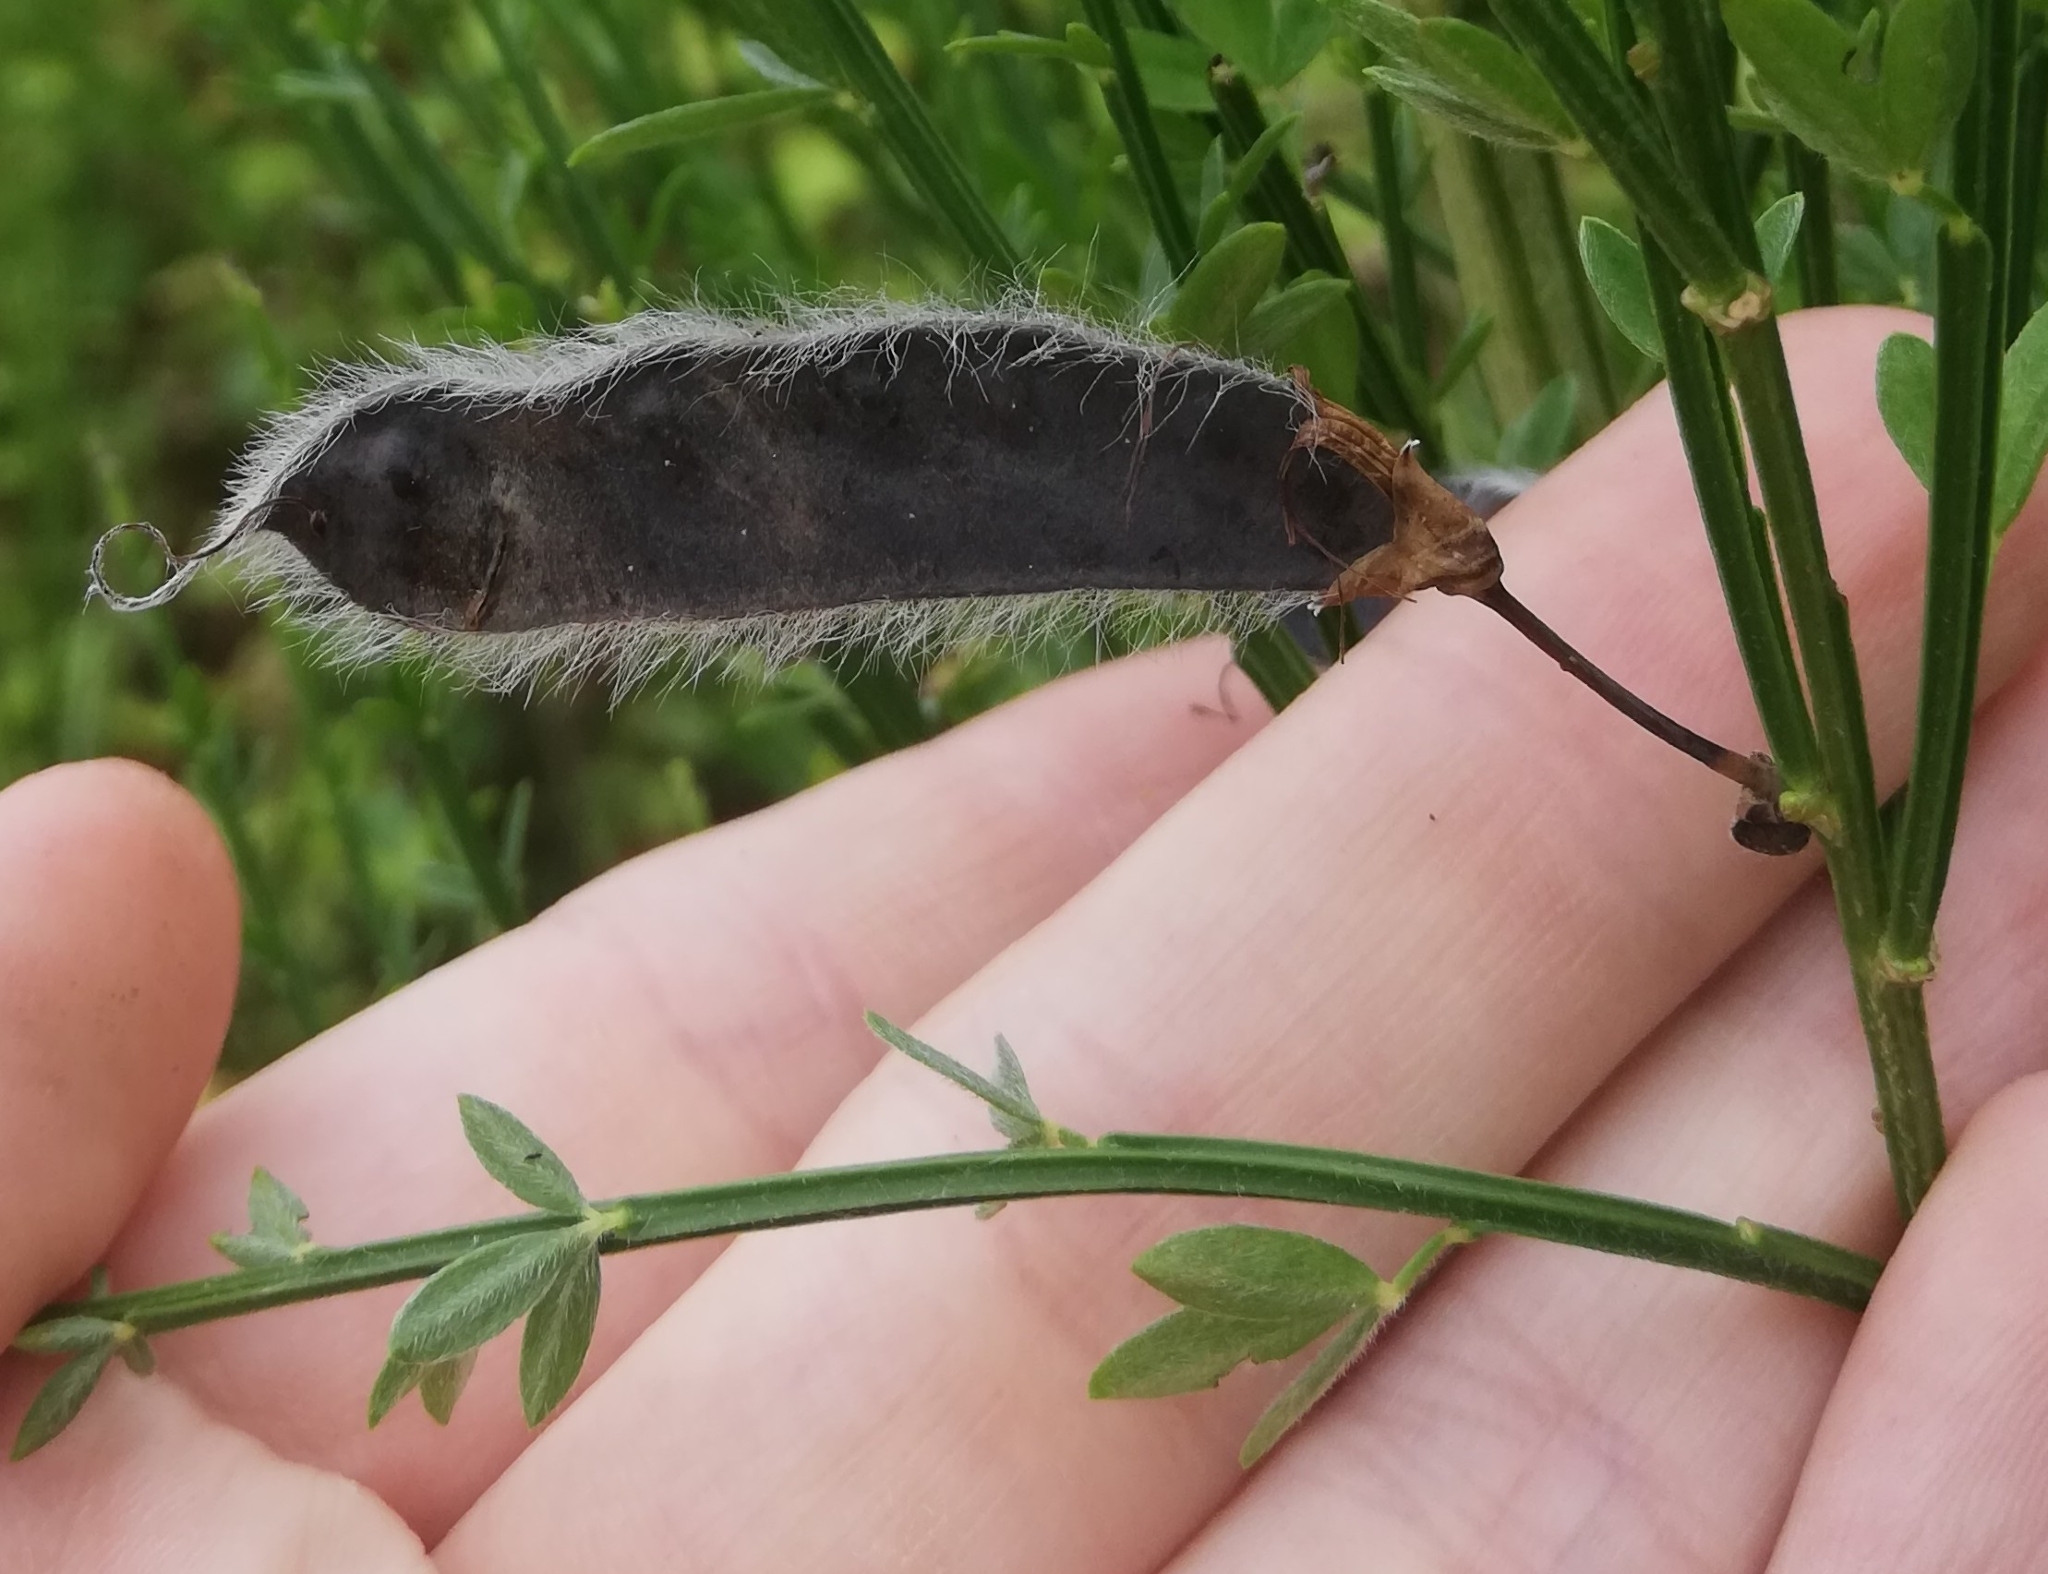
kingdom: Plantae
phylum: Tracheophyta
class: Magnoliopsida
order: Fabales
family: Fabaceae
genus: Cytisus
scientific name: Cytisus scoparius
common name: Scotch broom
